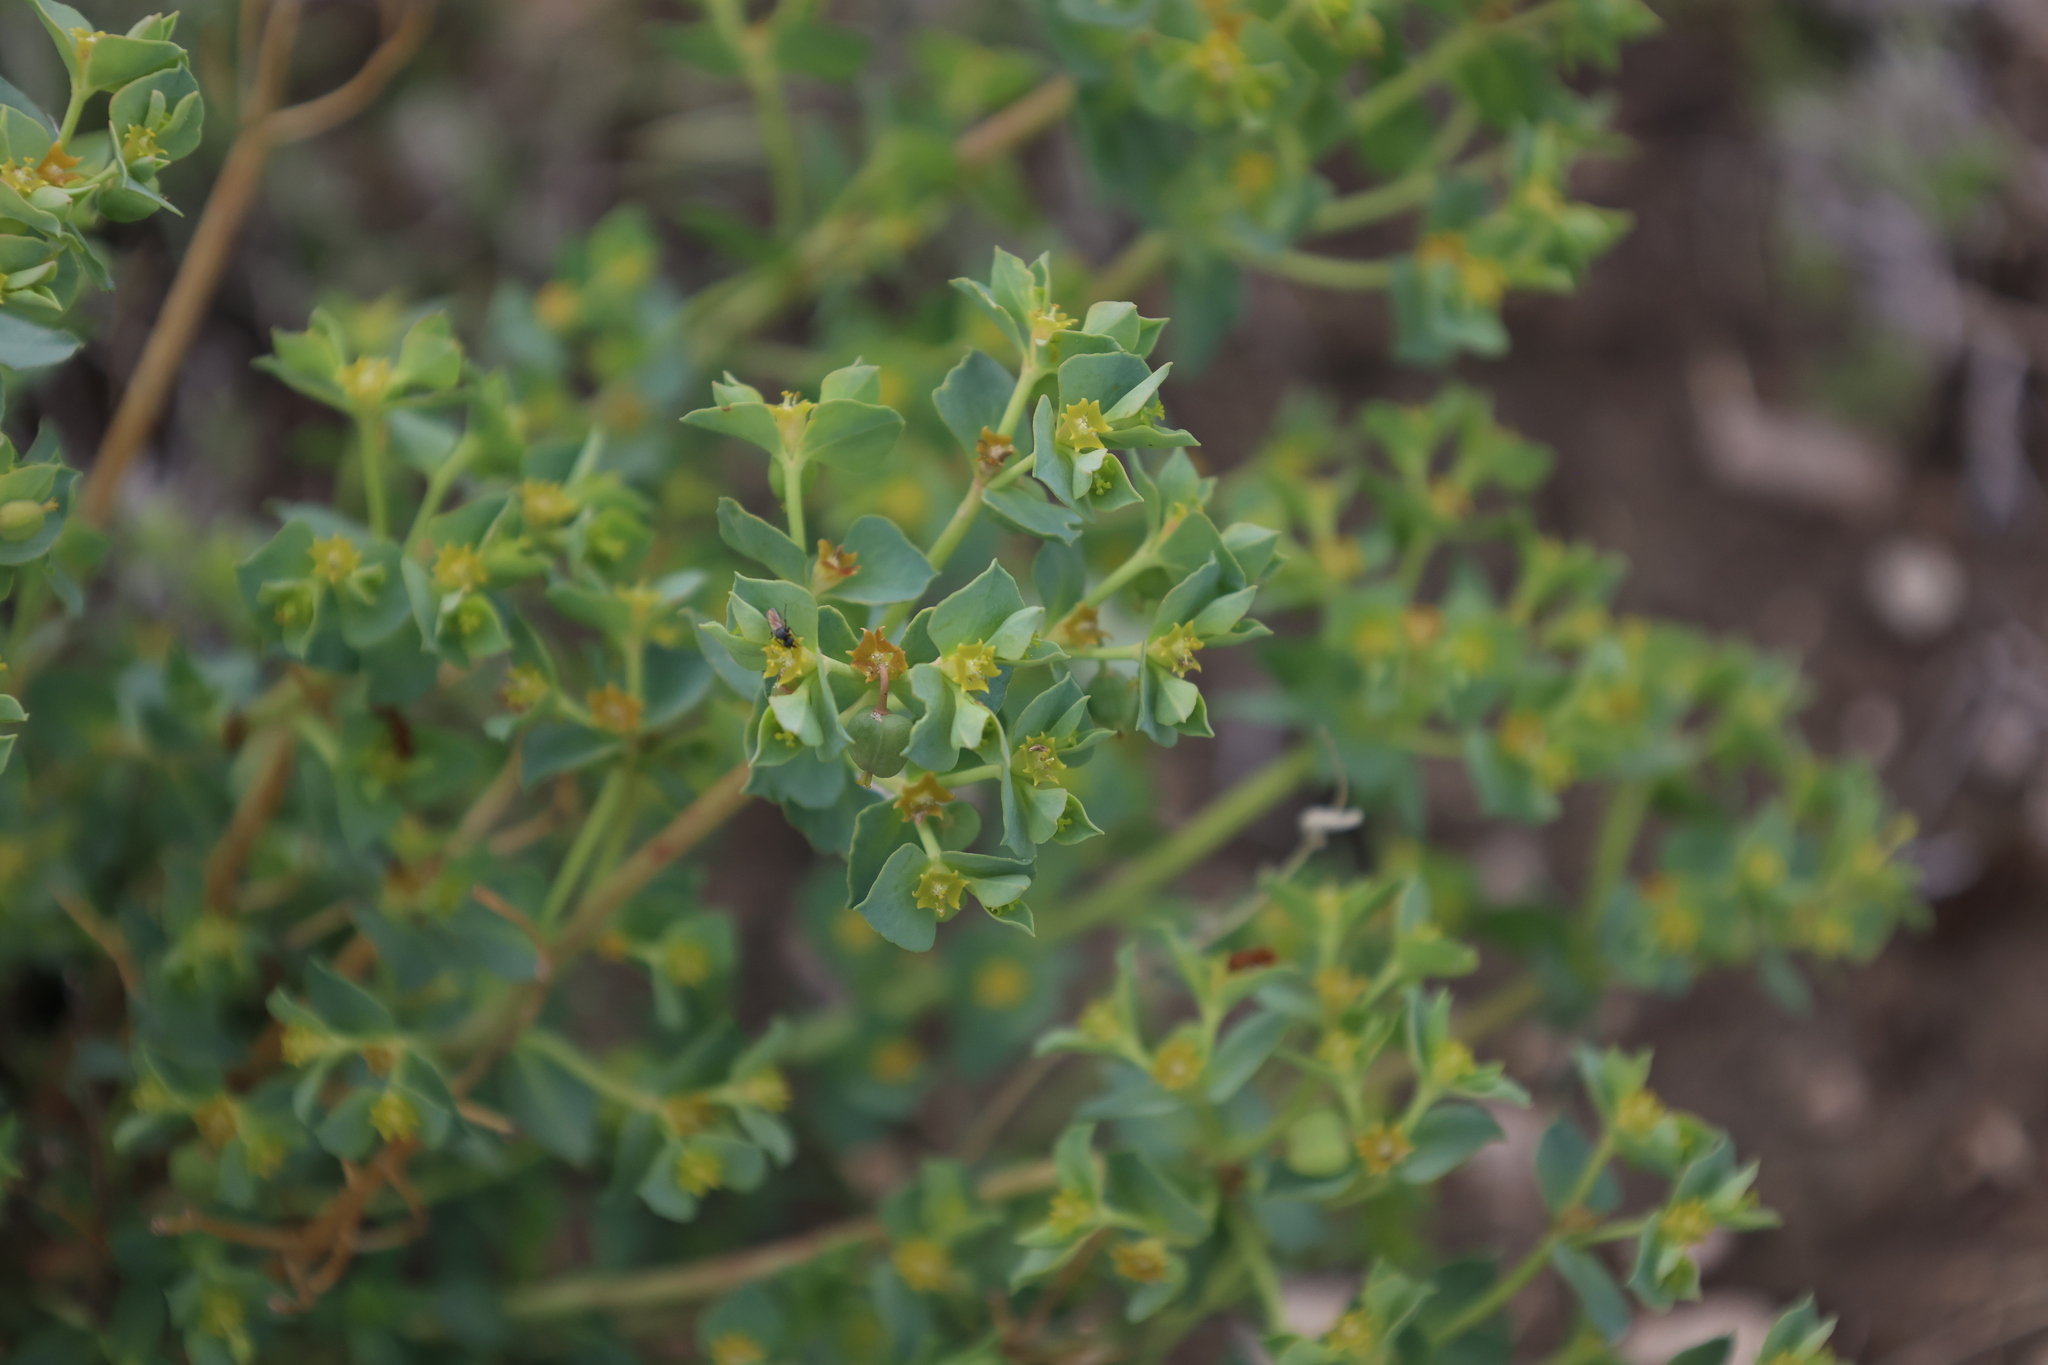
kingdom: Plantae
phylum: Tracheophyta
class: Magnoliopsida
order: Malpighiales
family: Euphorbiaceae
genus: Euphorbia
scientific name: Euphorbia brachycera
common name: Shorthorn spurge
